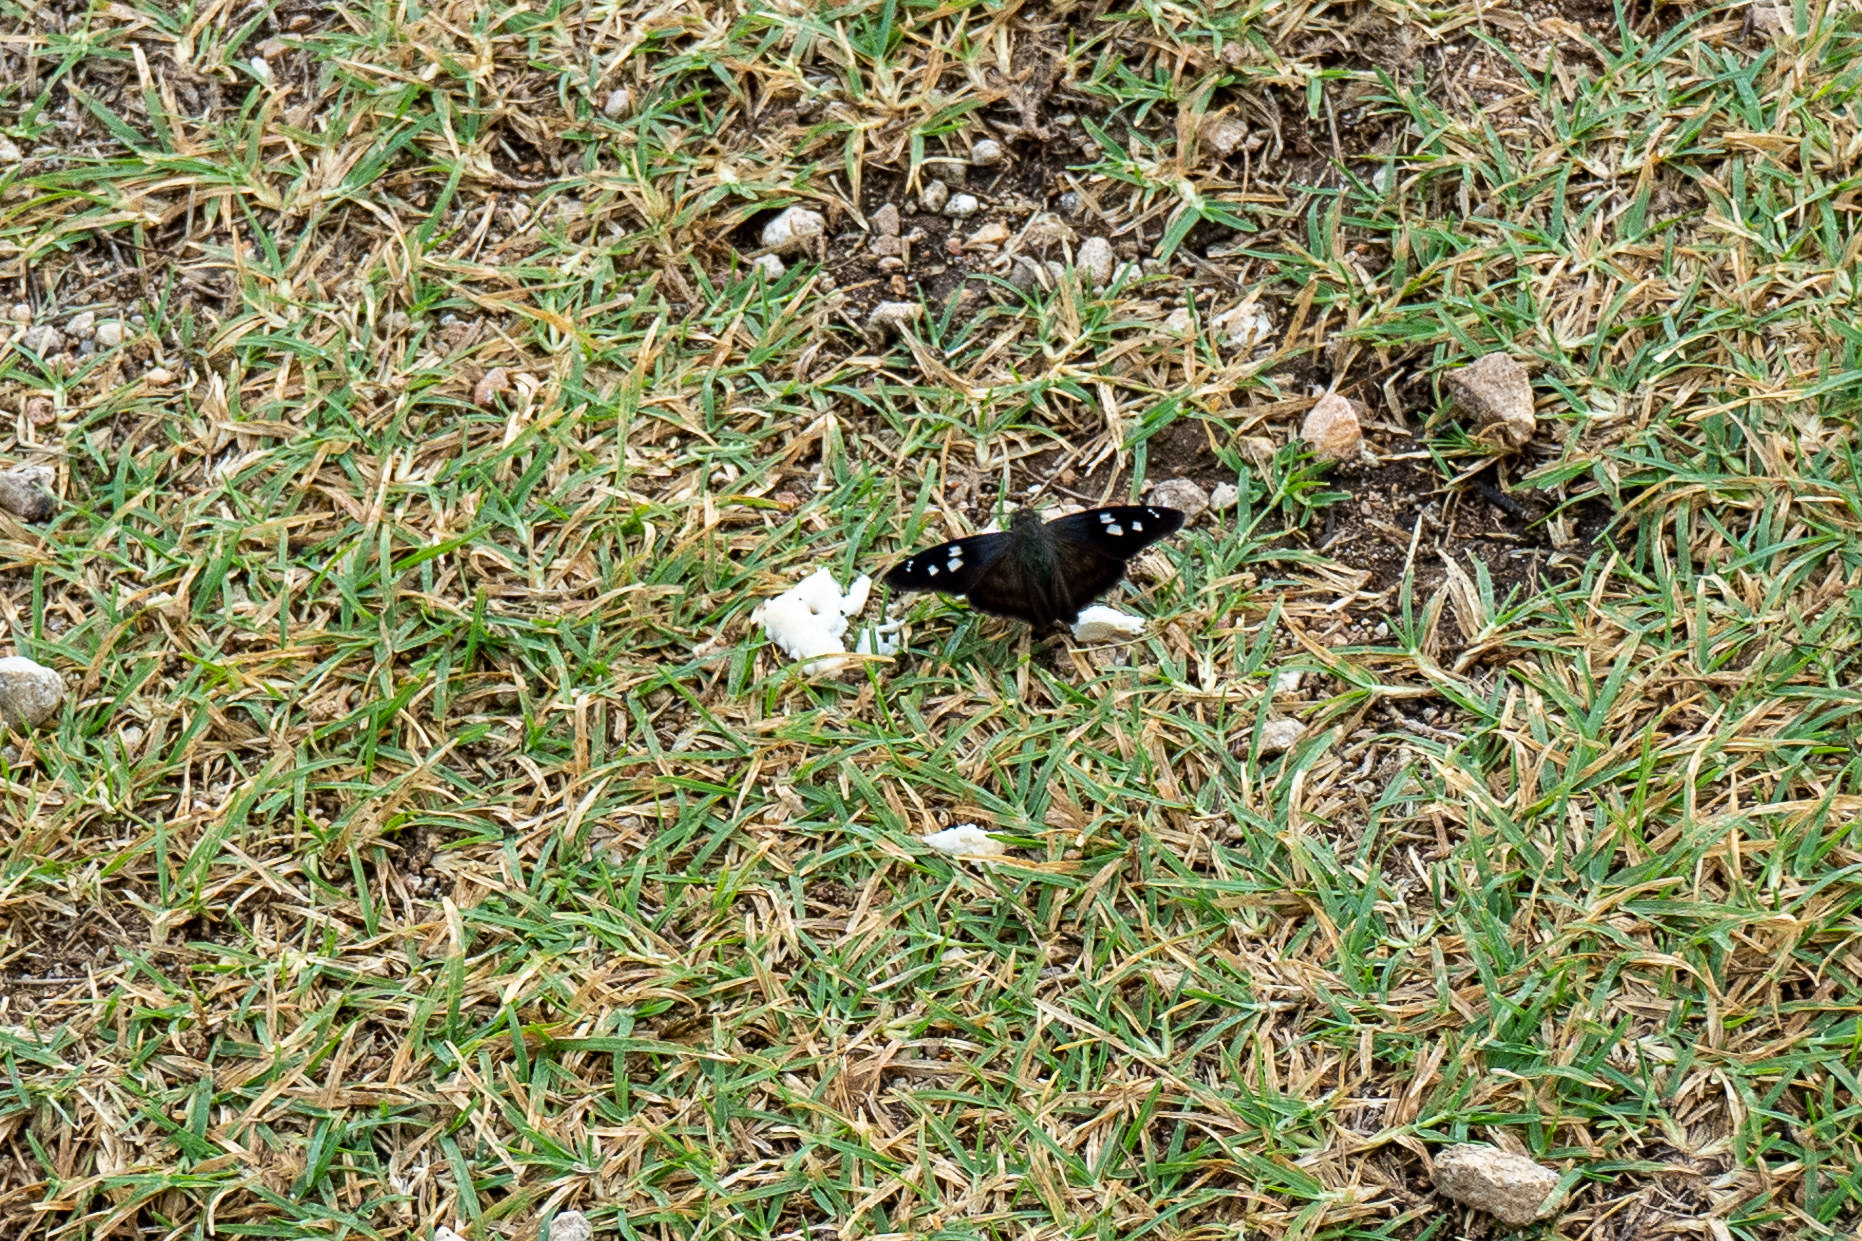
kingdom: Animalia
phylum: Arthropoda
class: Insecta
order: Lepidoptera
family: Hesperiidae
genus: Polygonus
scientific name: Polygonus leo
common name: Hammoch skipper
